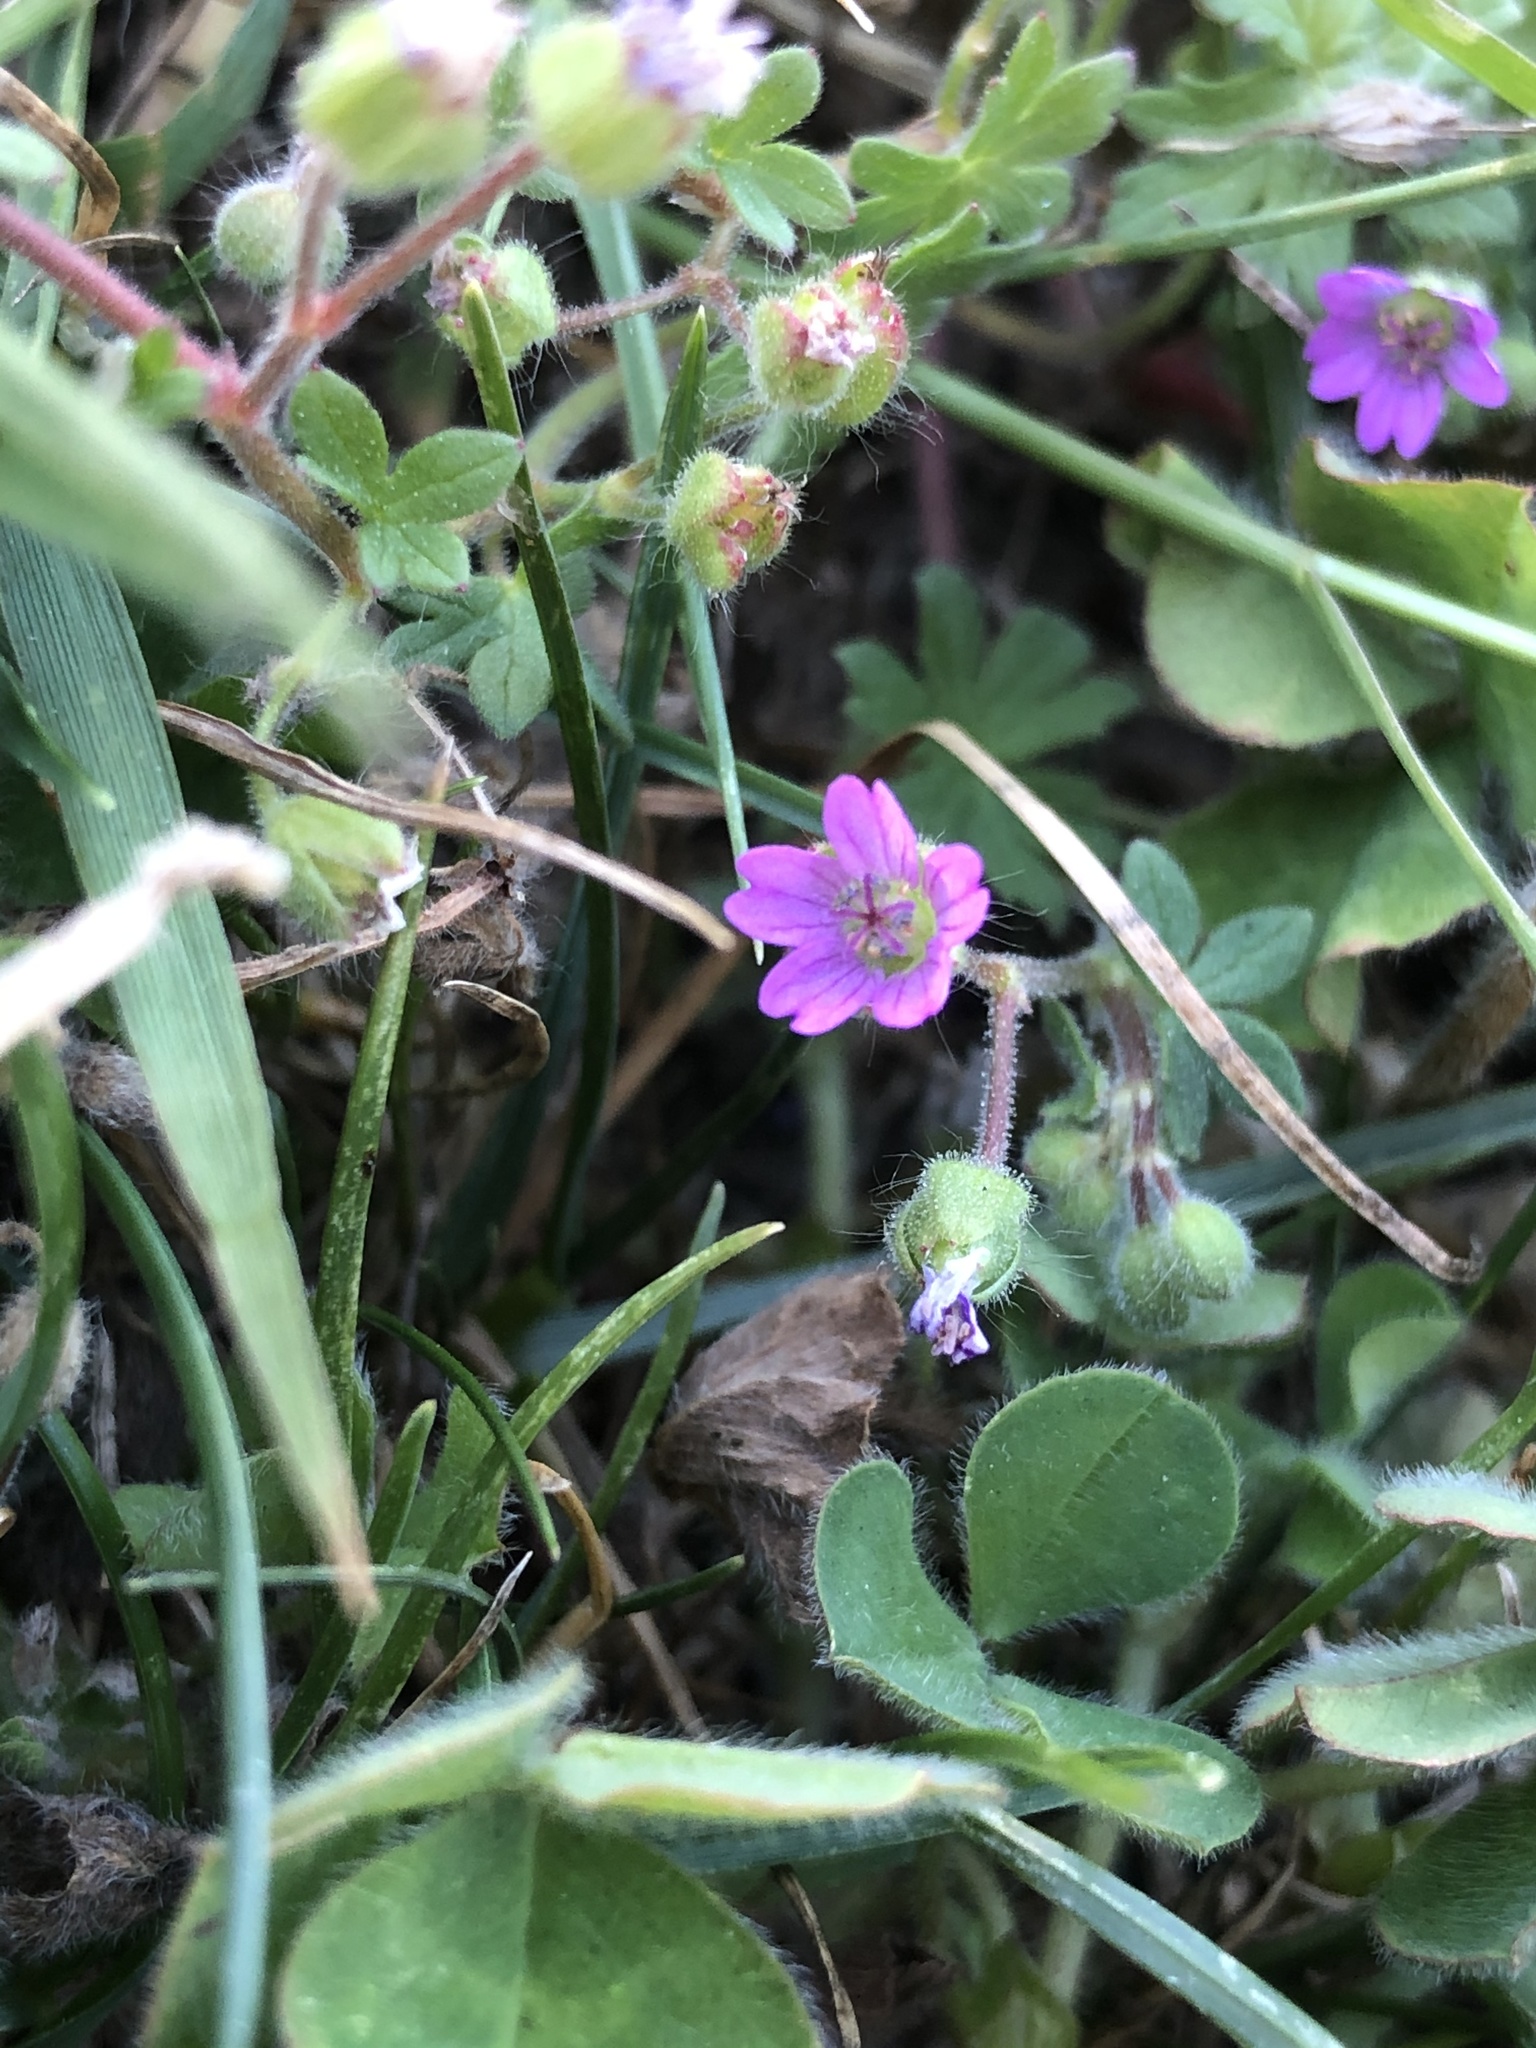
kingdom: Plantae
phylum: Tracheophyta
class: Magnoliopsida
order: Geraniales
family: Geraniaceae
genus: Geranium
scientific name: Geranium molle
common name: Dove's-foot crane's-bill
